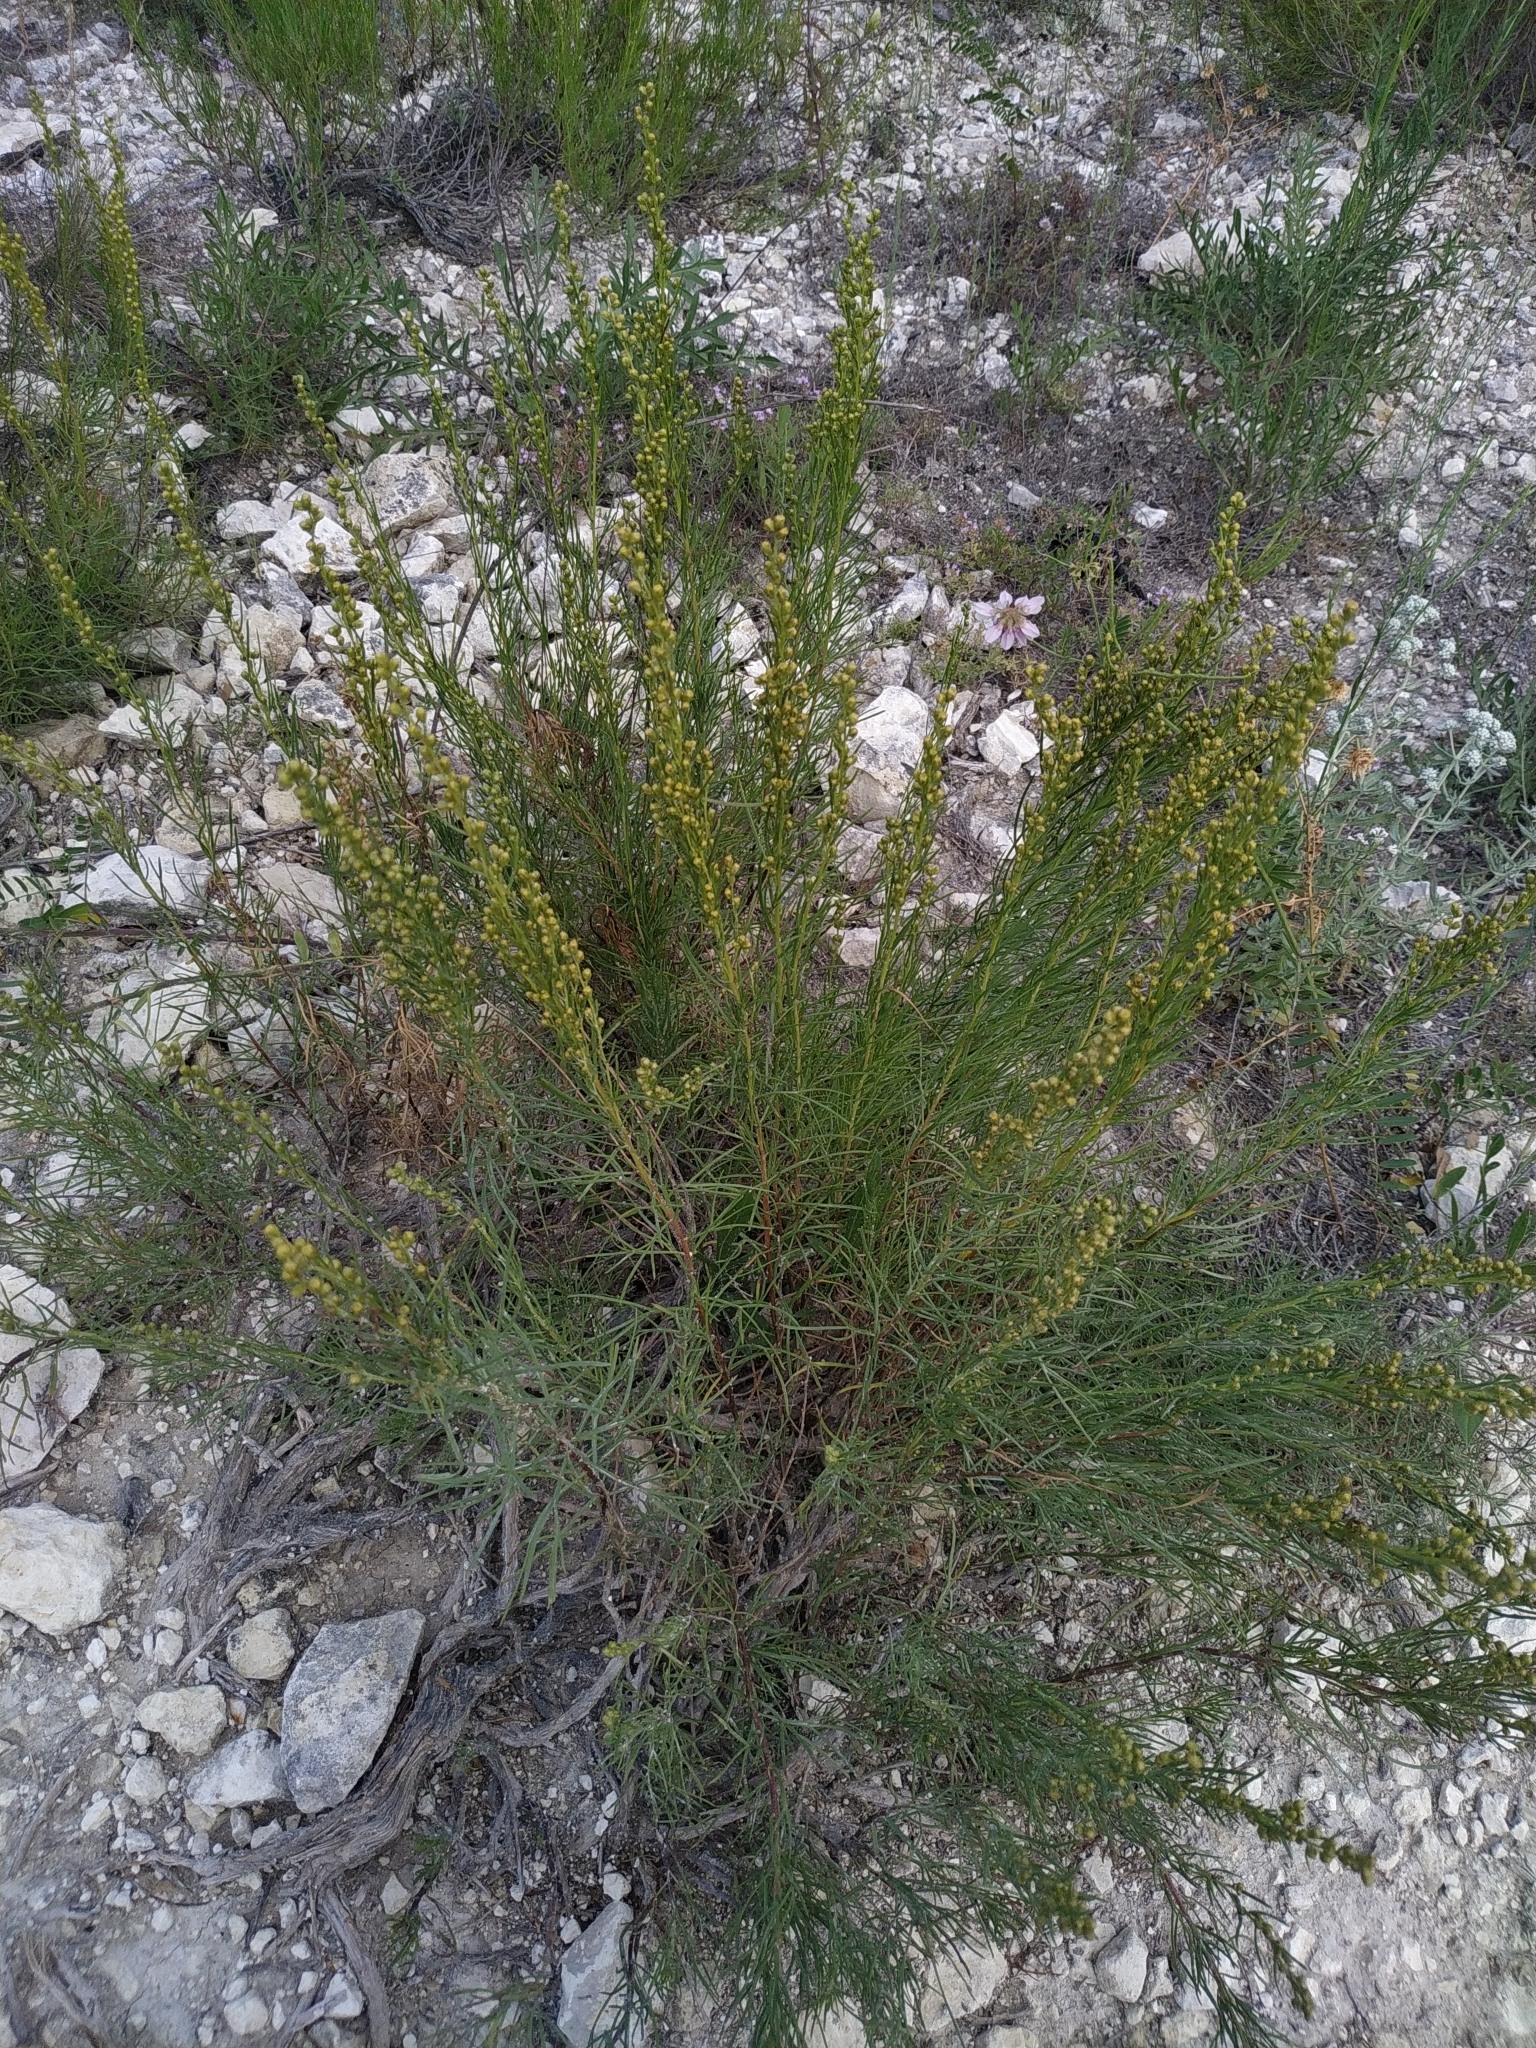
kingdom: Plantae
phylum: Tracheophyta
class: Magnoliopsida
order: Asterales
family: Asteraceae
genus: Artemisia
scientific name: Artemisia salsoloides
